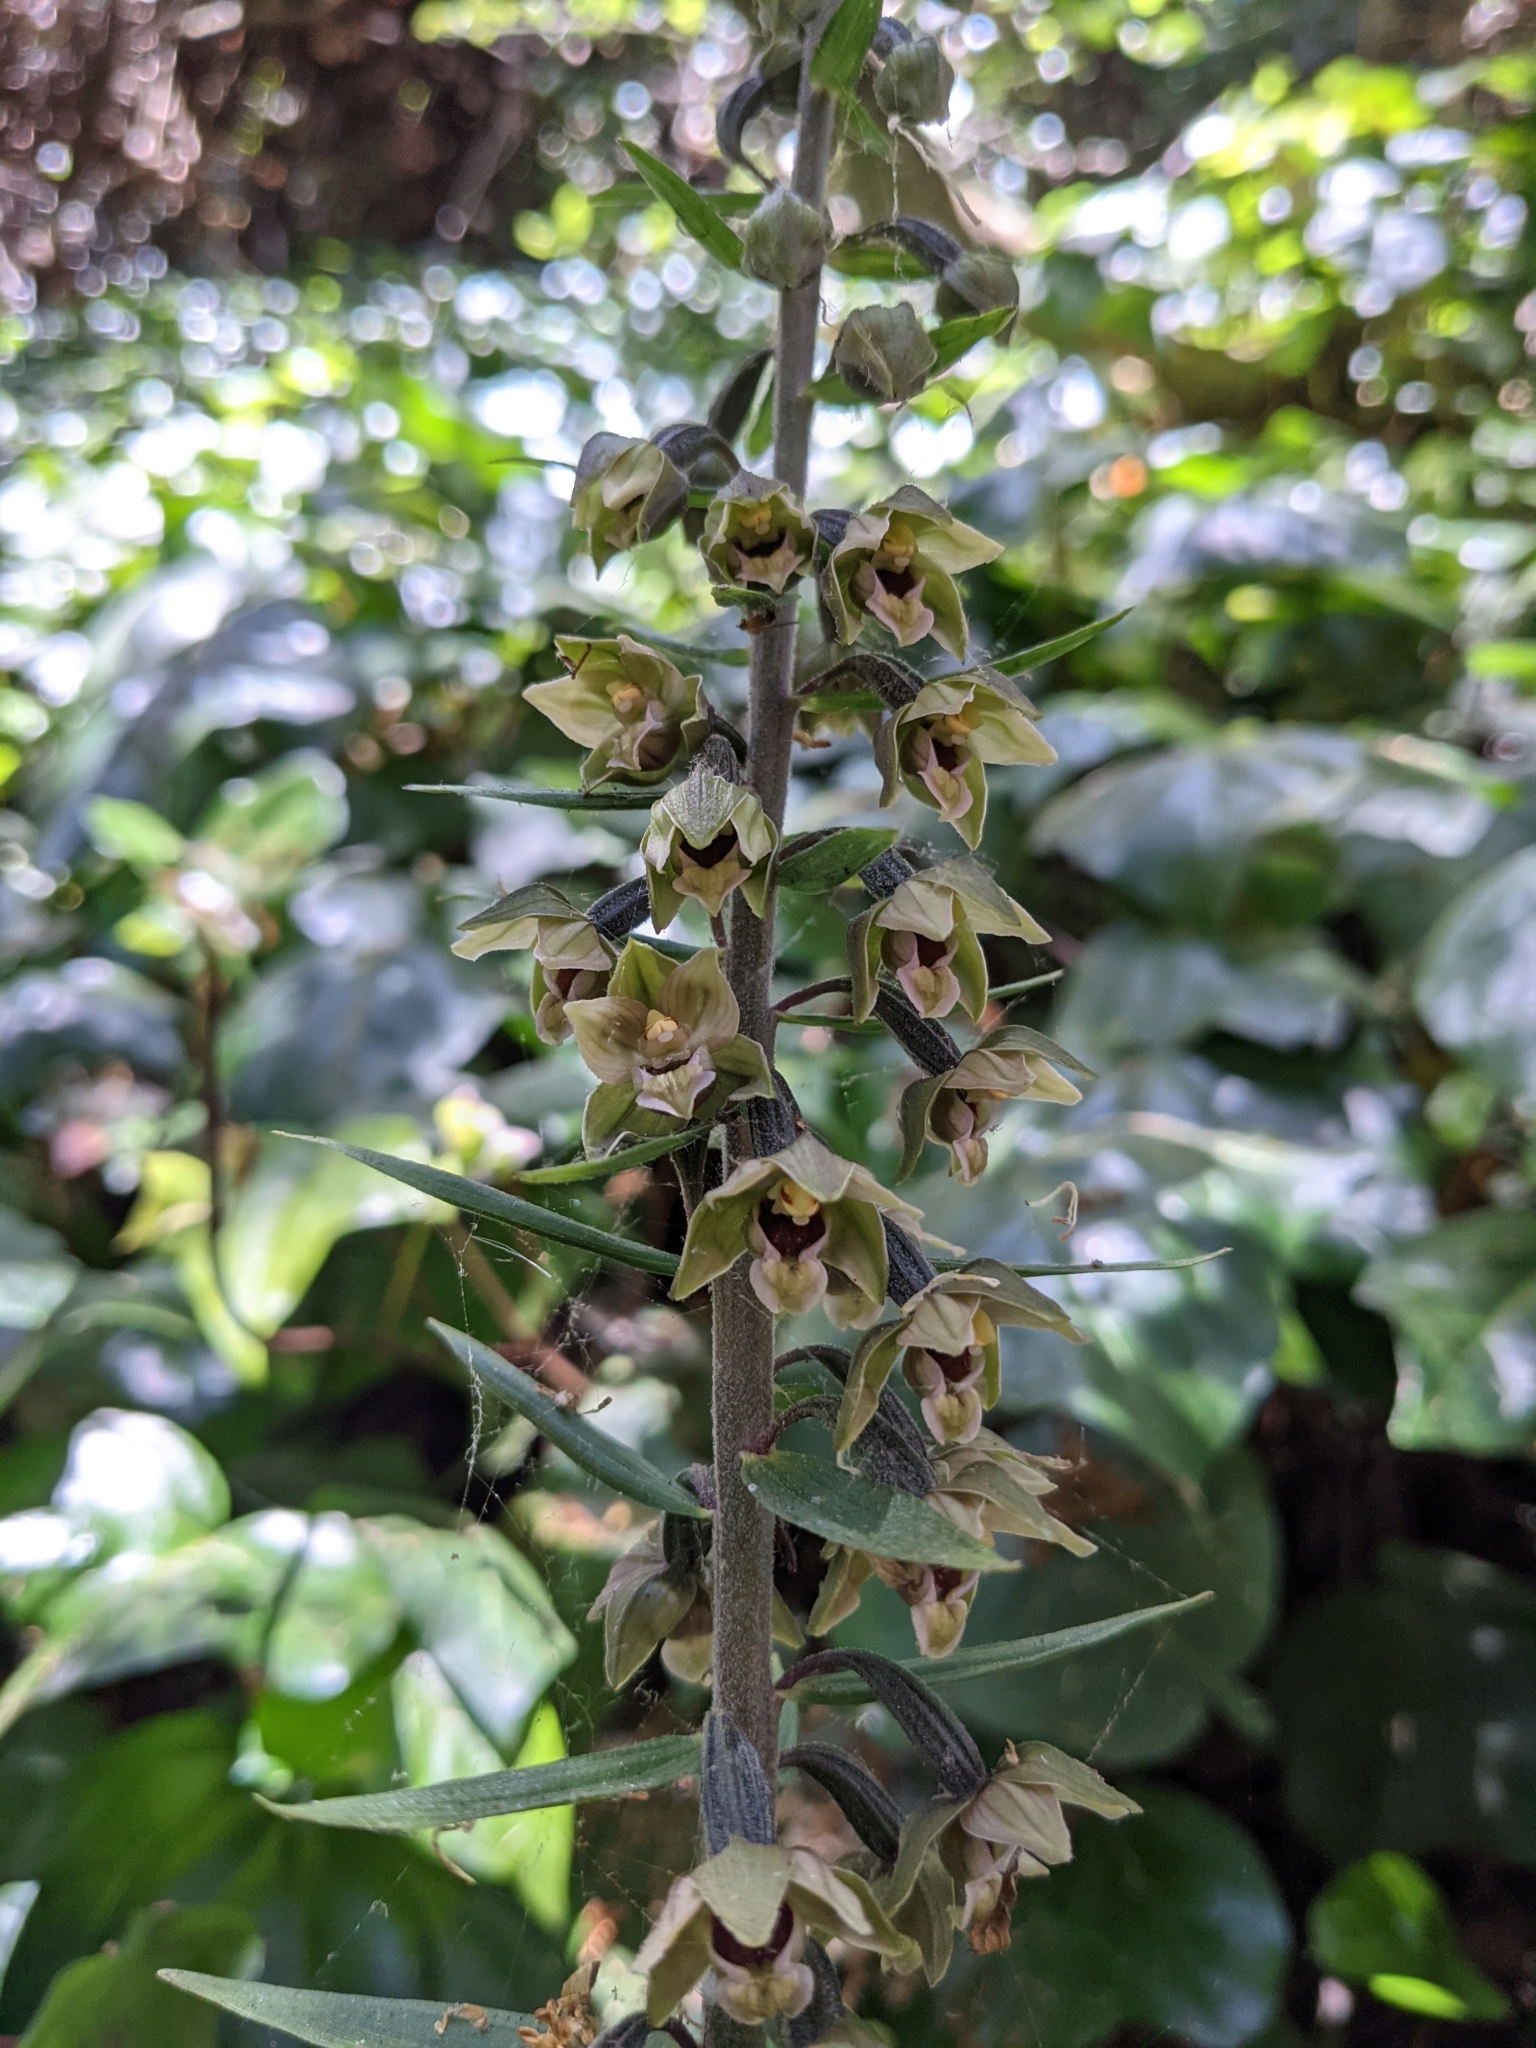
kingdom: Plantae
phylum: Tracheophyta
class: Liliopsida
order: Asparagales
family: Orchidaceae
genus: Epipactis
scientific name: Epipactis helleborine
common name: Broad-leaved helleborine
